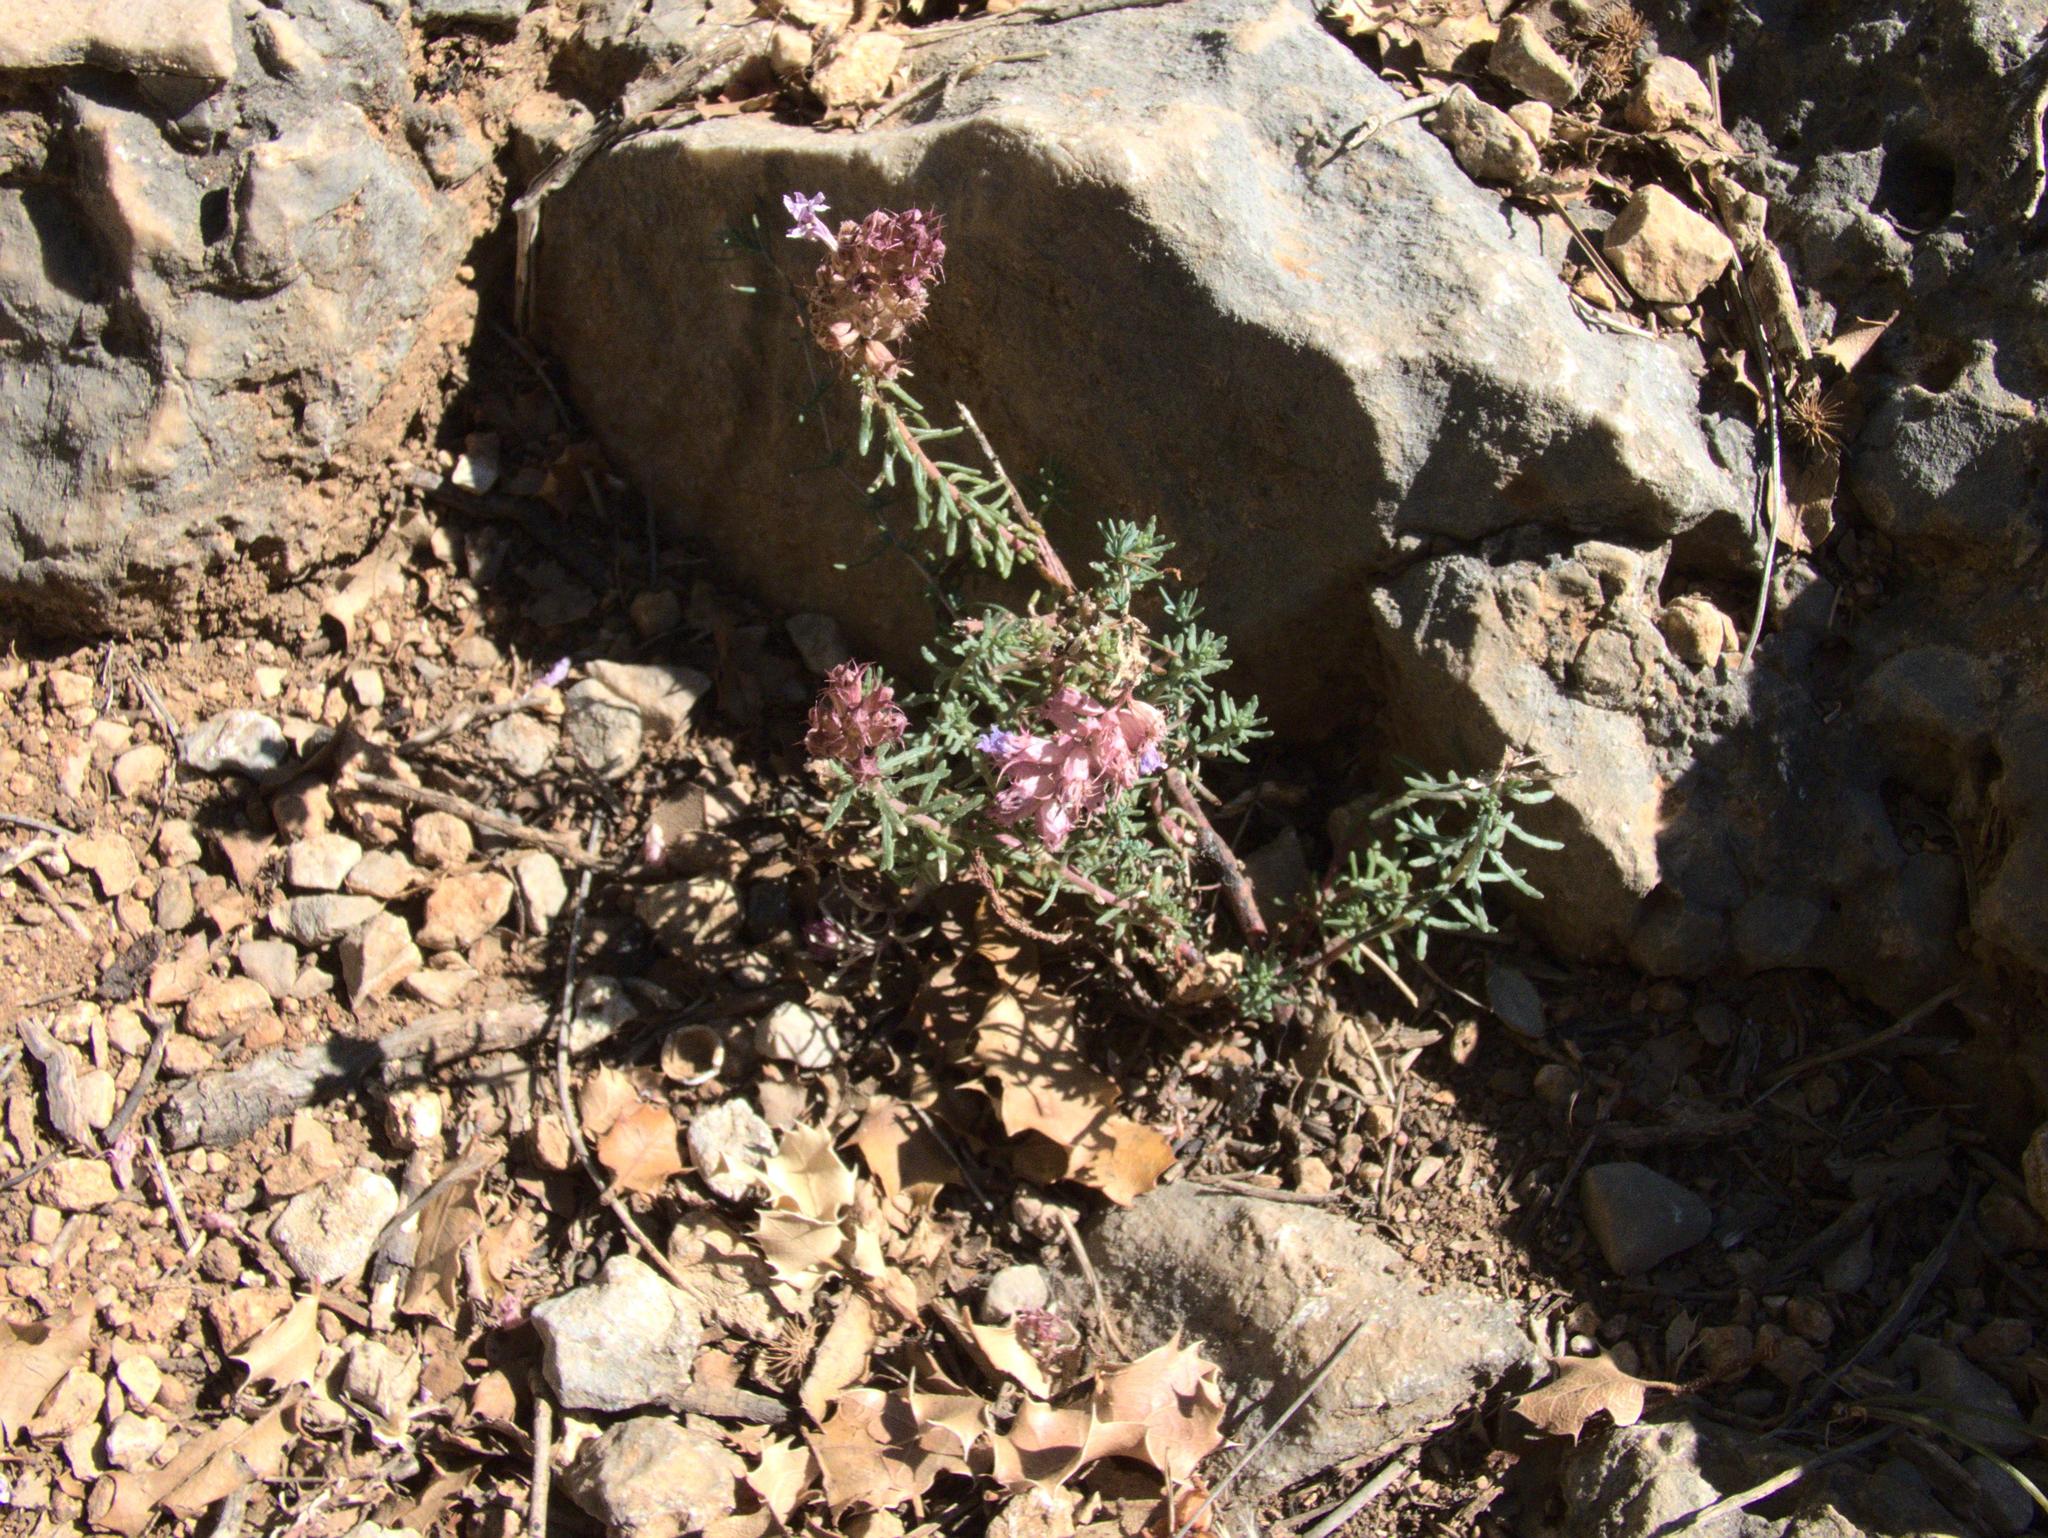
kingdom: Plantae
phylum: Tracheophyta
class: Magnoliopsida
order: Ericales
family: Primulaceae
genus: Coris
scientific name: Coris monspeliensis
